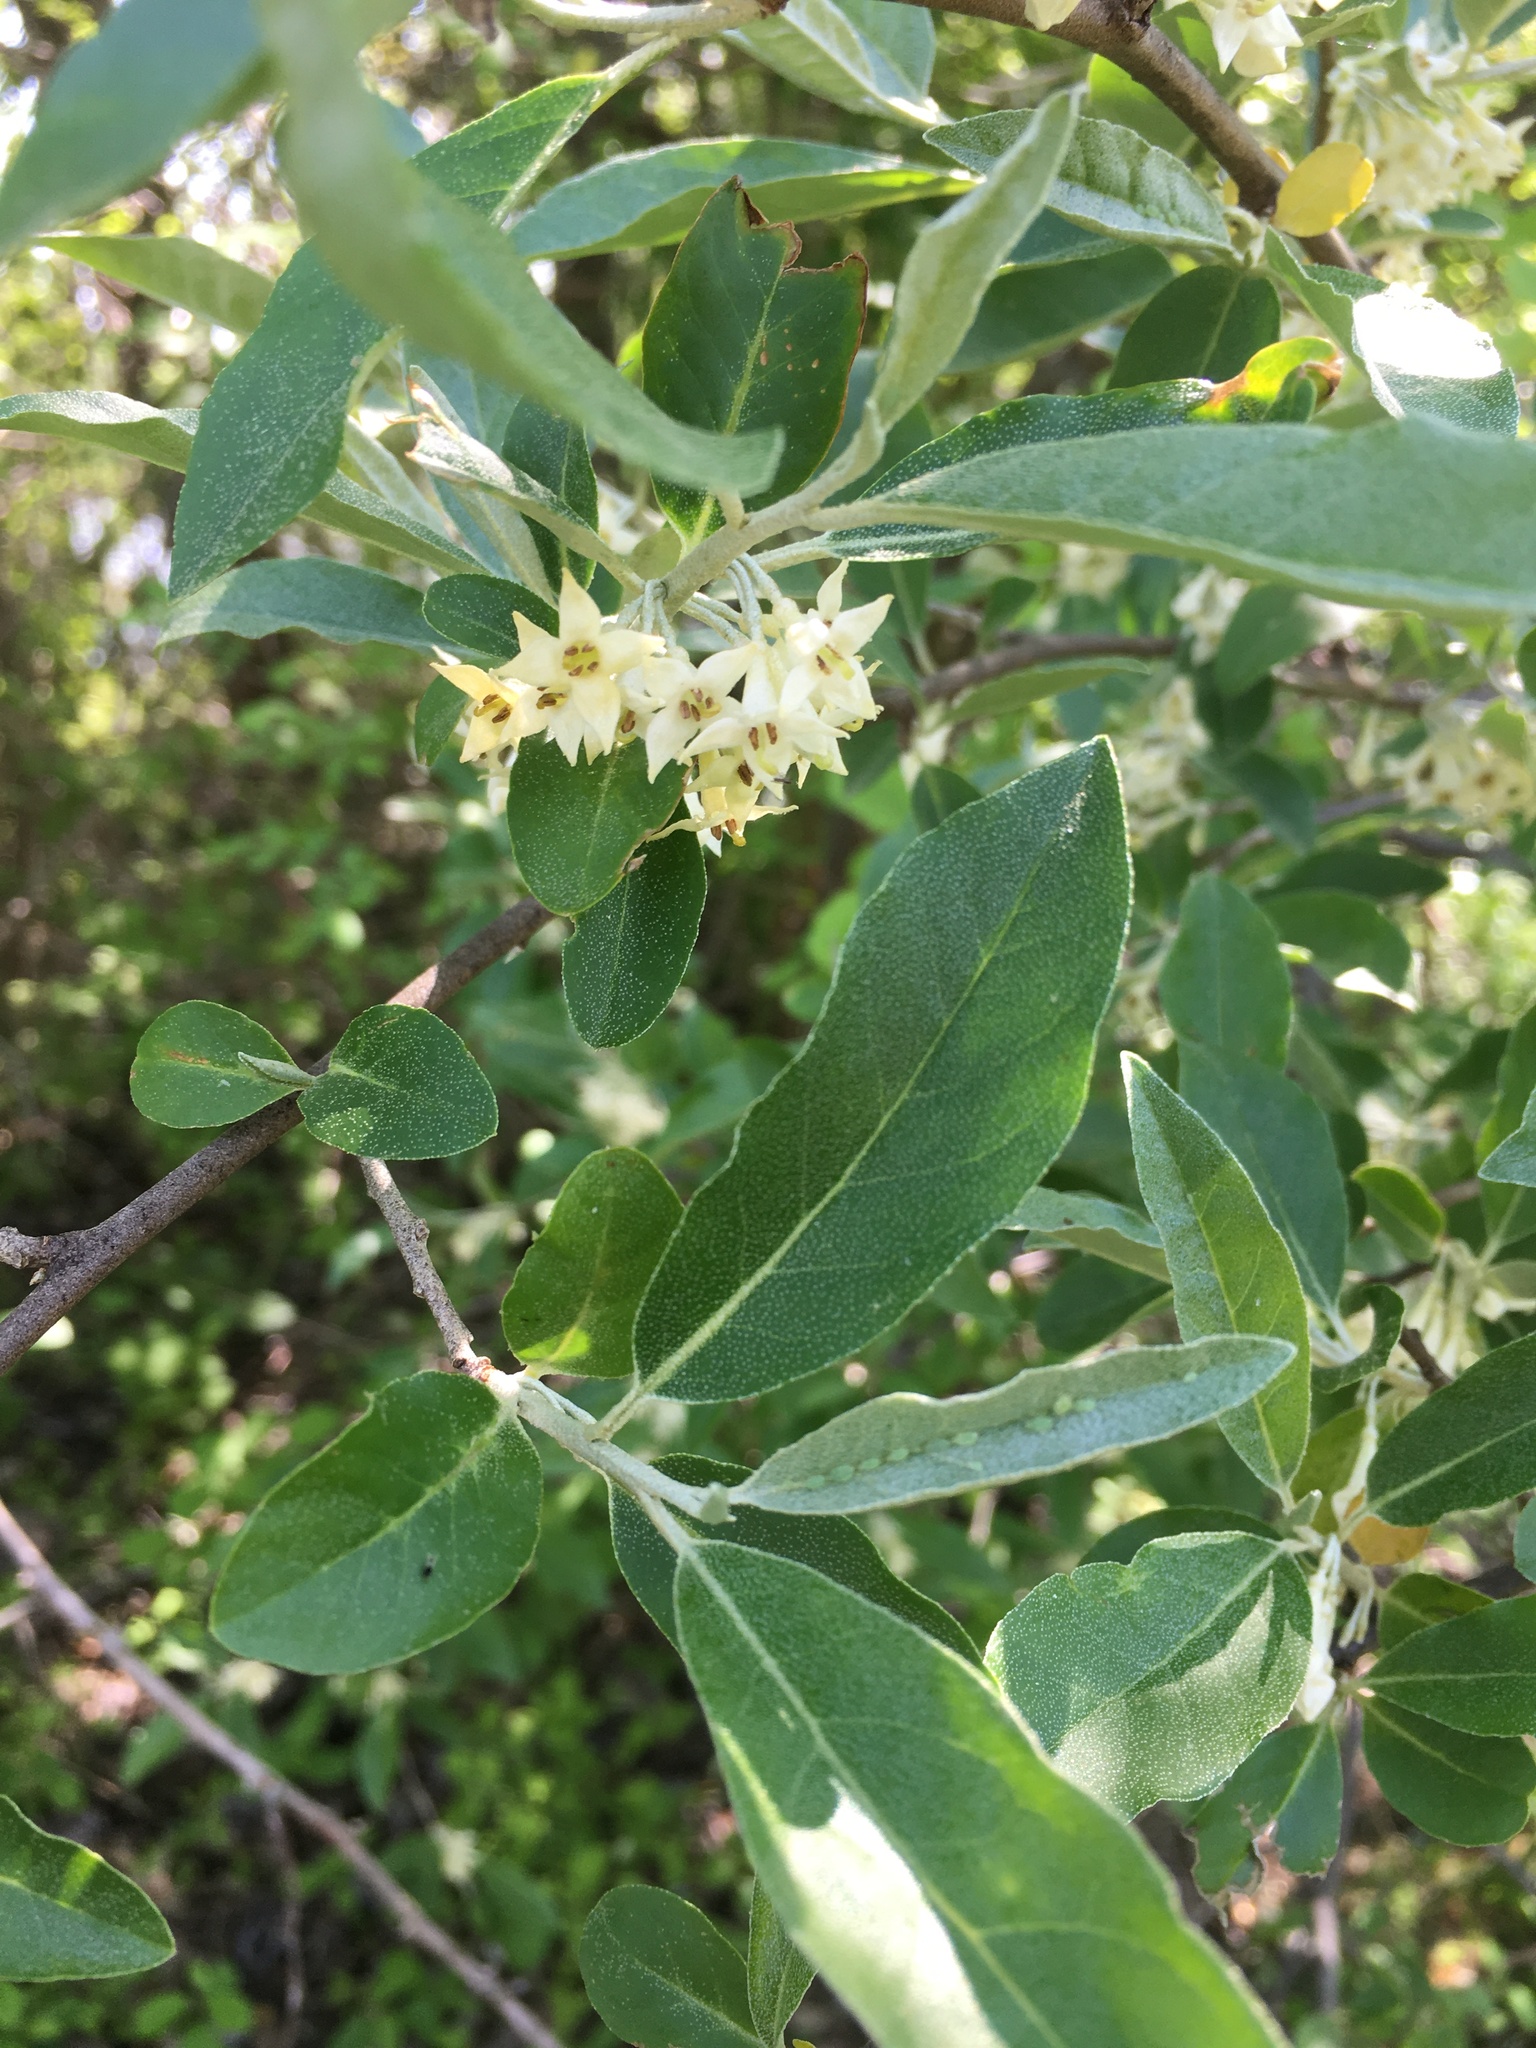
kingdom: Plantae
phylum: Tracheophyta
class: Magnoliopsida
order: Rosales
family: Elaeagnaceae
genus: Elaeagnus
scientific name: Elaeagnus umbellata
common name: Autumn olive
